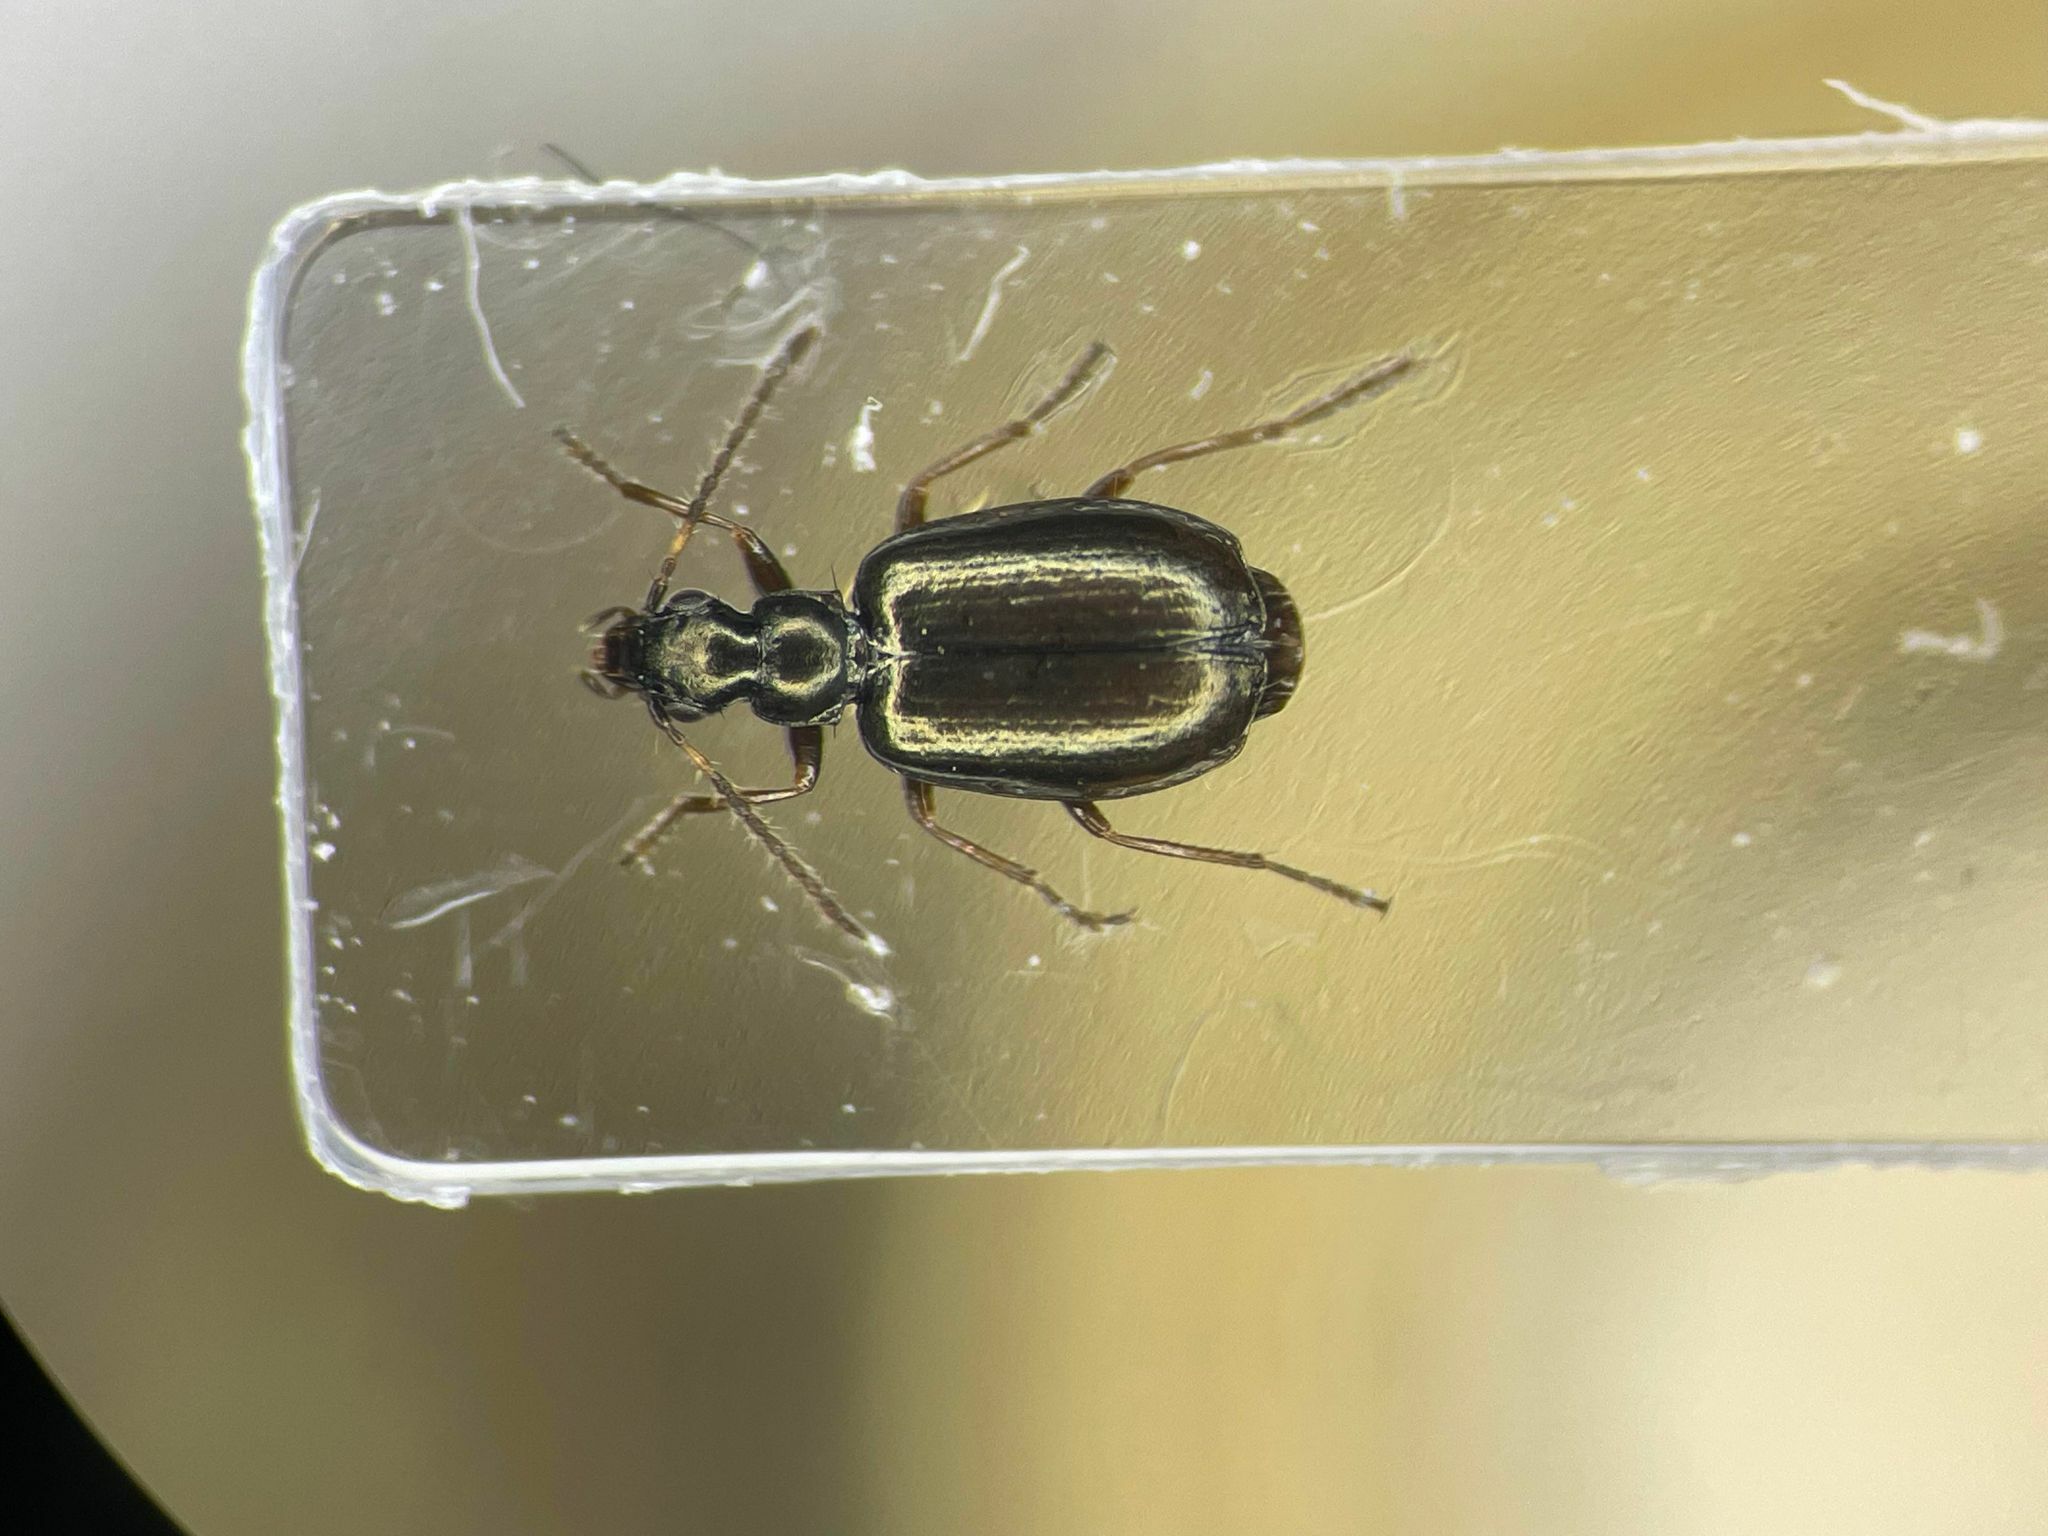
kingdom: Animalia
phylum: Arthropoda
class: Insecta
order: Coleoptera
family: Carabidae
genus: Lebia
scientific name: Lebia pumila
